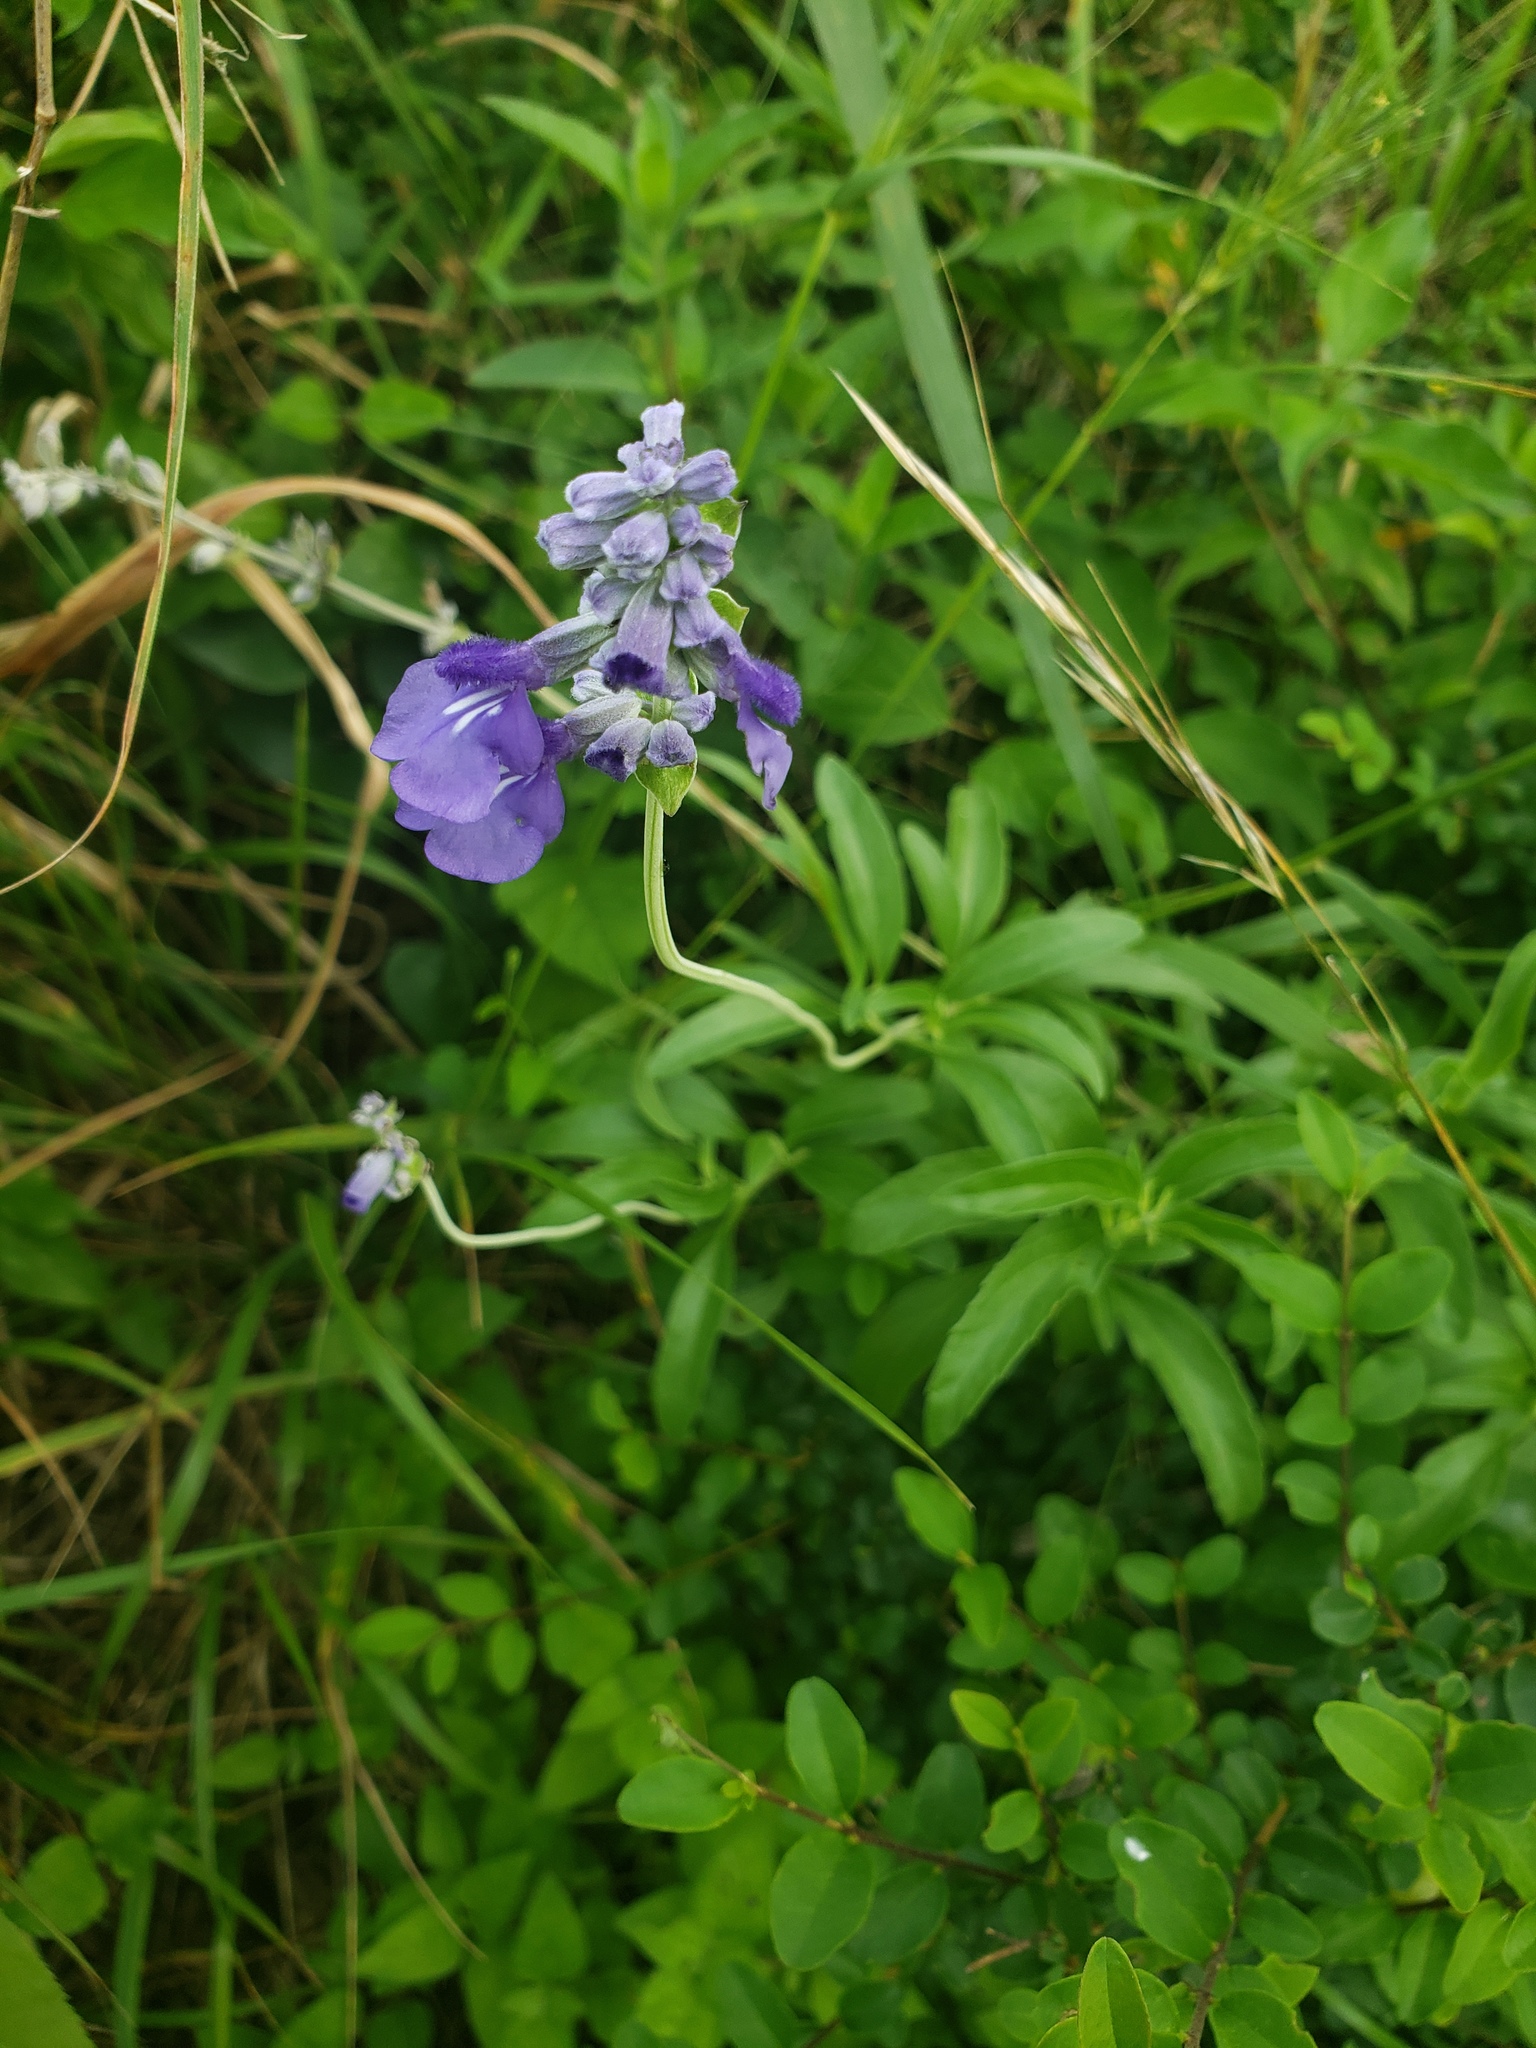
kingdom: Plantae
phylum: Tracheophyta
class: Magnoliopsida
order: Lamiales
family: Lamiaceae
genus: Salvia
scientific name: Salvia farinacea
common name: Mealy sage
